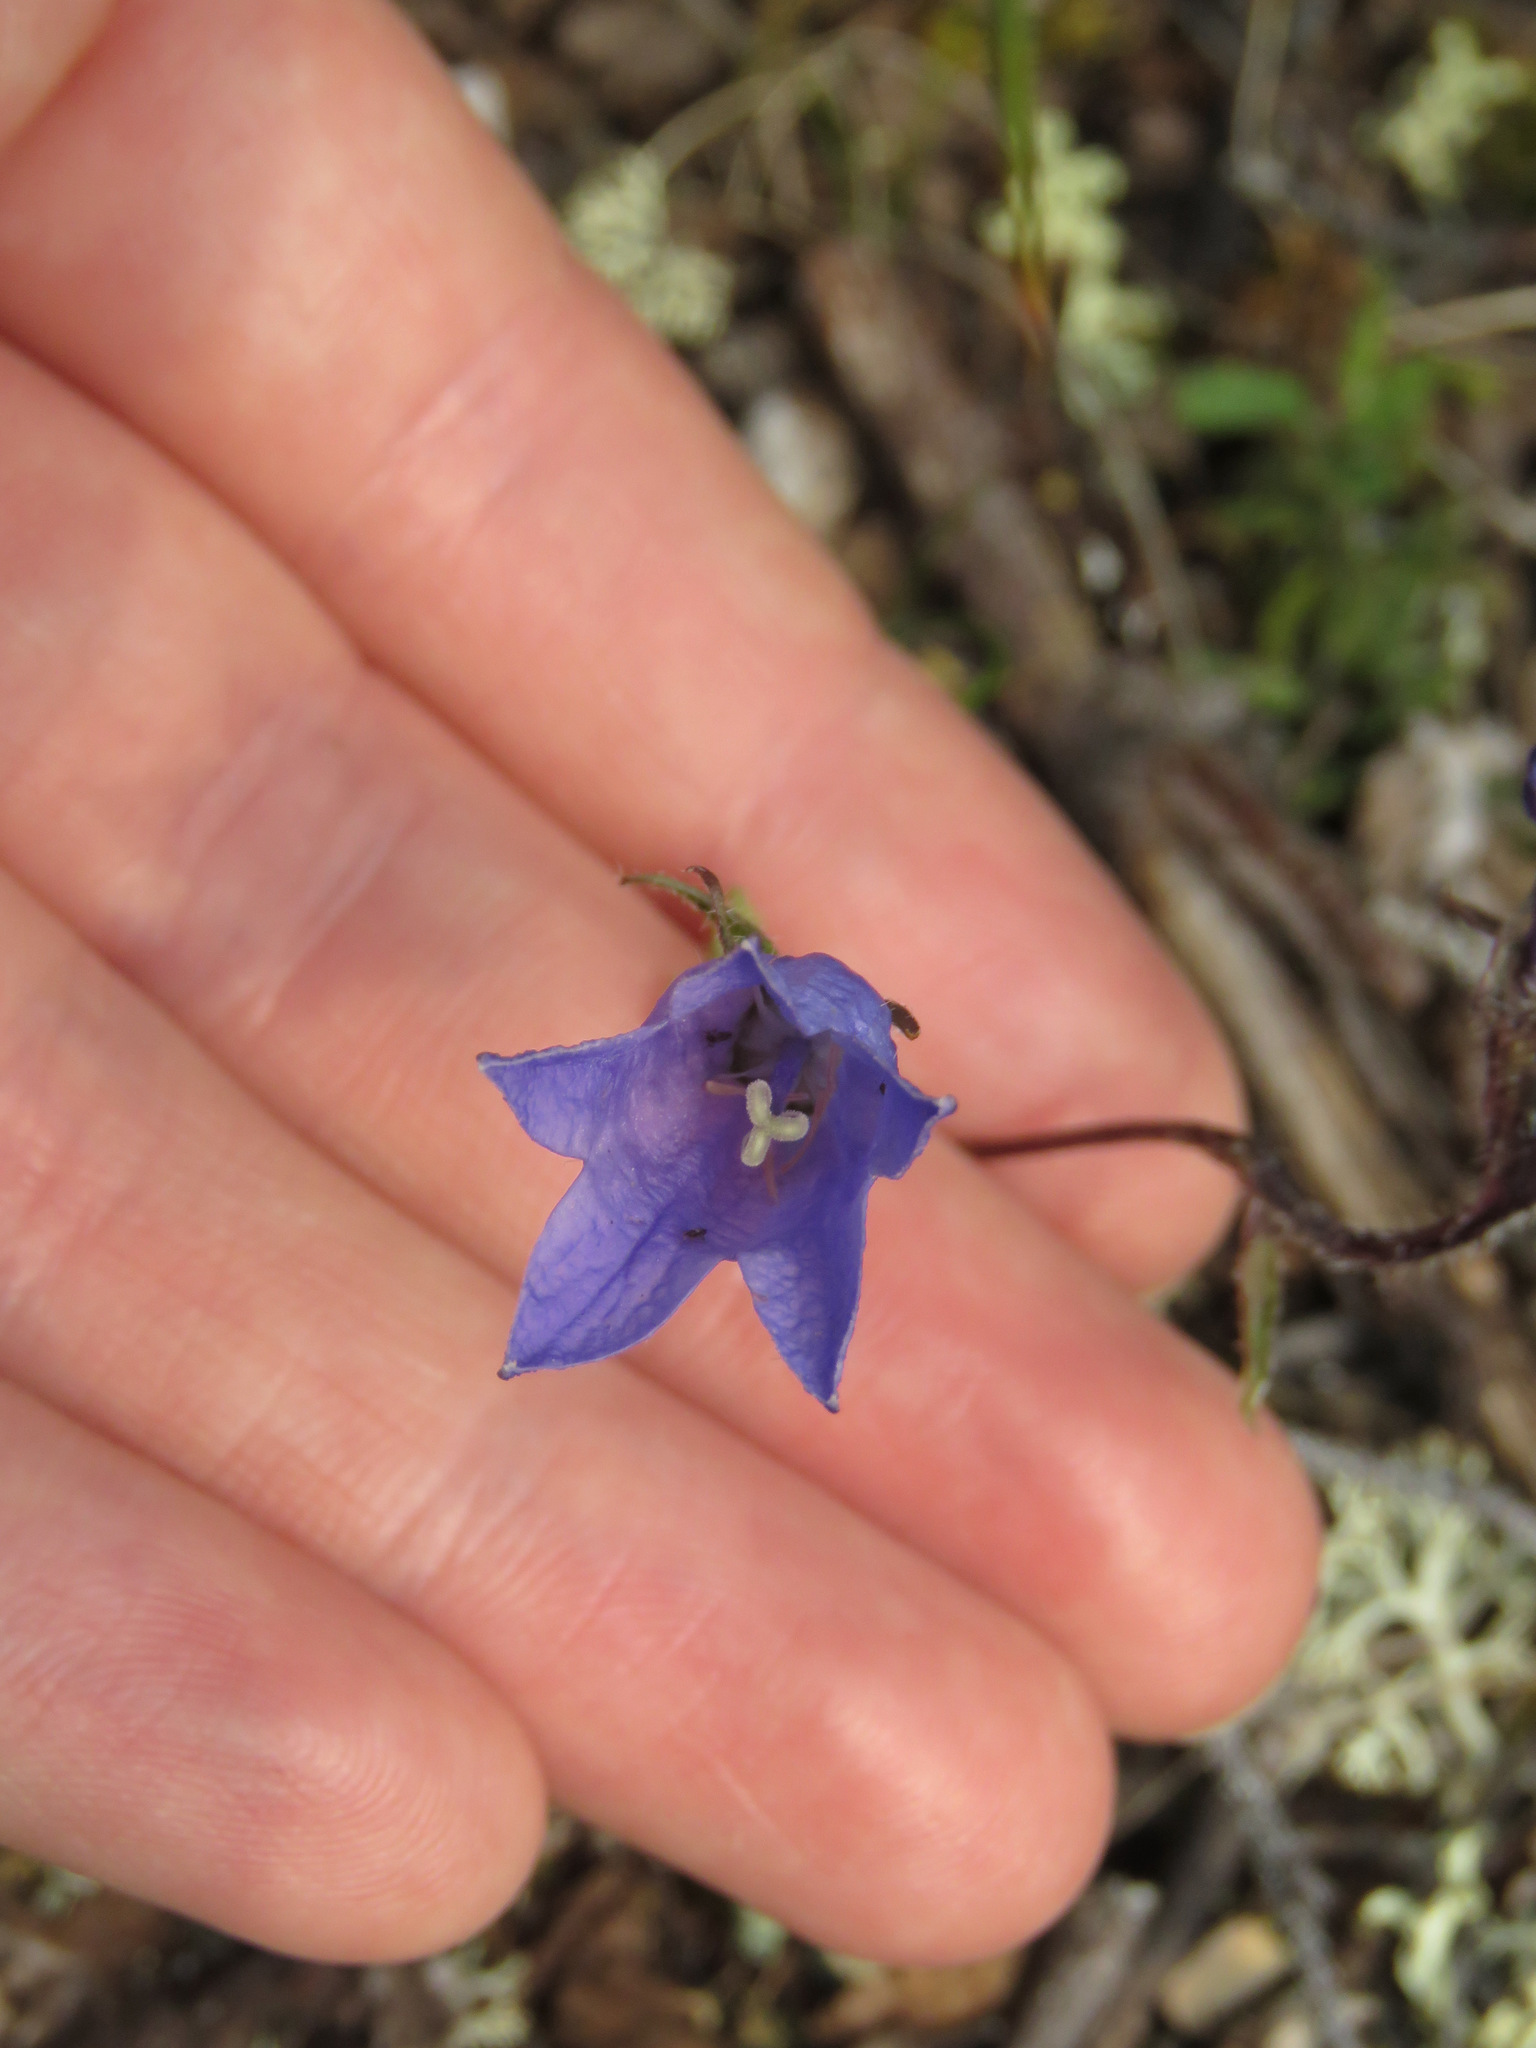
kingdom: Plantae
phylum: Tracheophyta
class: Magnoliopsida
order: Asterales
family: Campanulaceae
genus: Campanula
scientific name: Campanula lasiocarpa
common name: Mountain harebell
